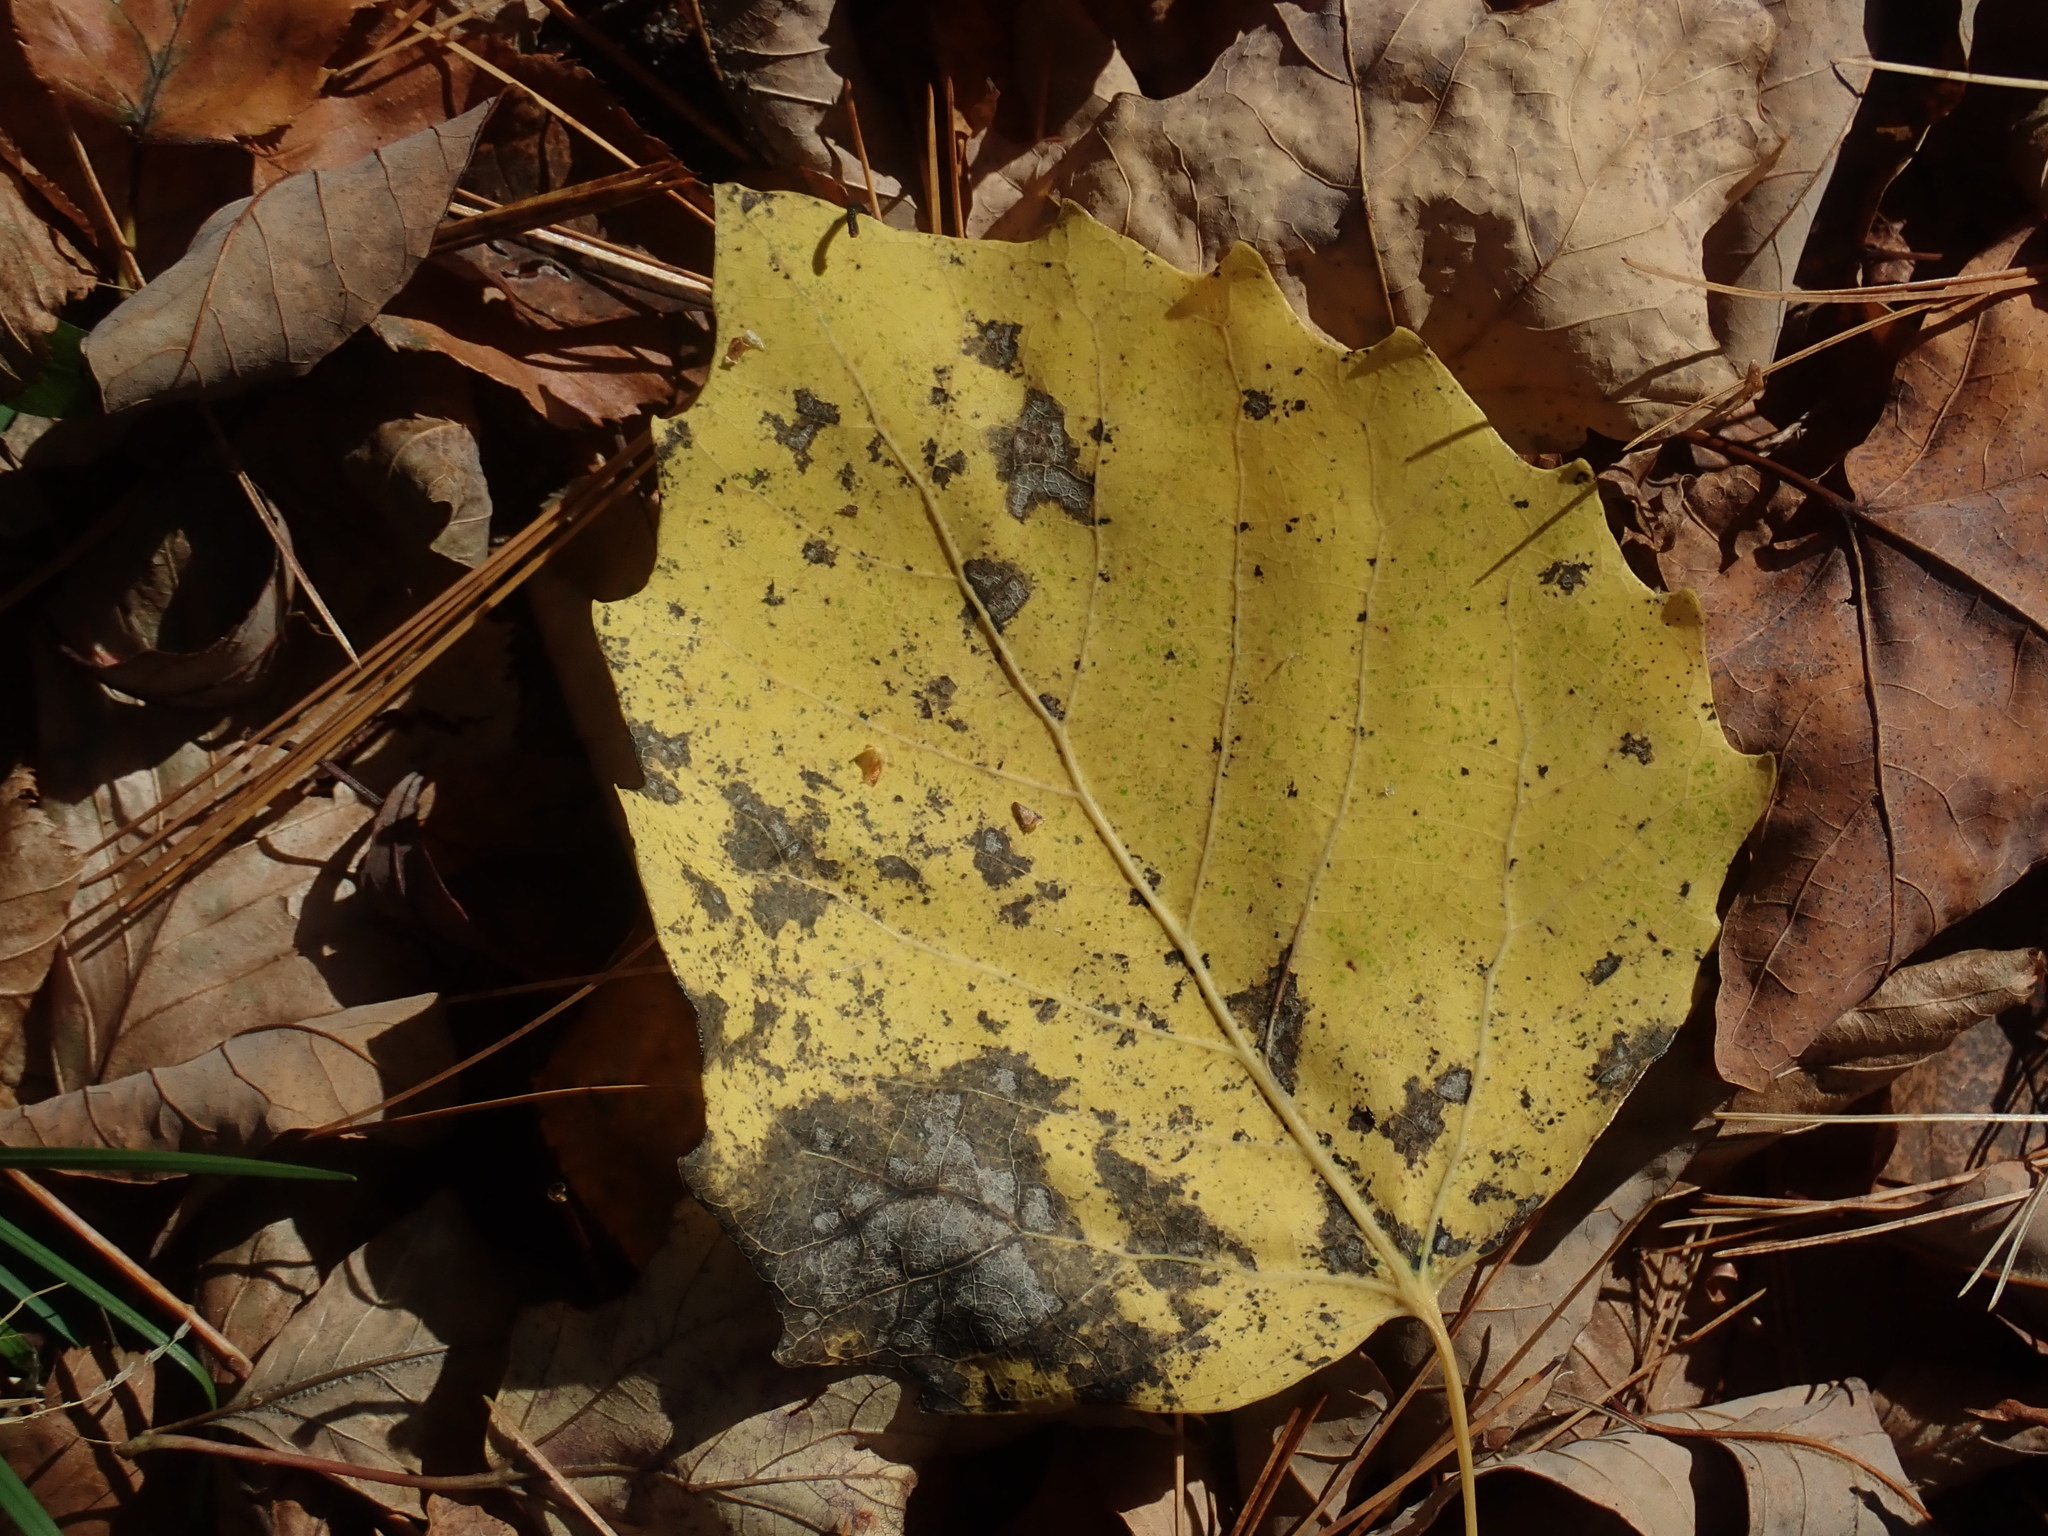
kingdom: Plantae
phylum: Tracheophyta
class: Magnoliopsida
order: Malpighiales
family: Salicaceae
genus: Populus
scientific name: Populus grandidentata
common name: Bigtooth aspen
